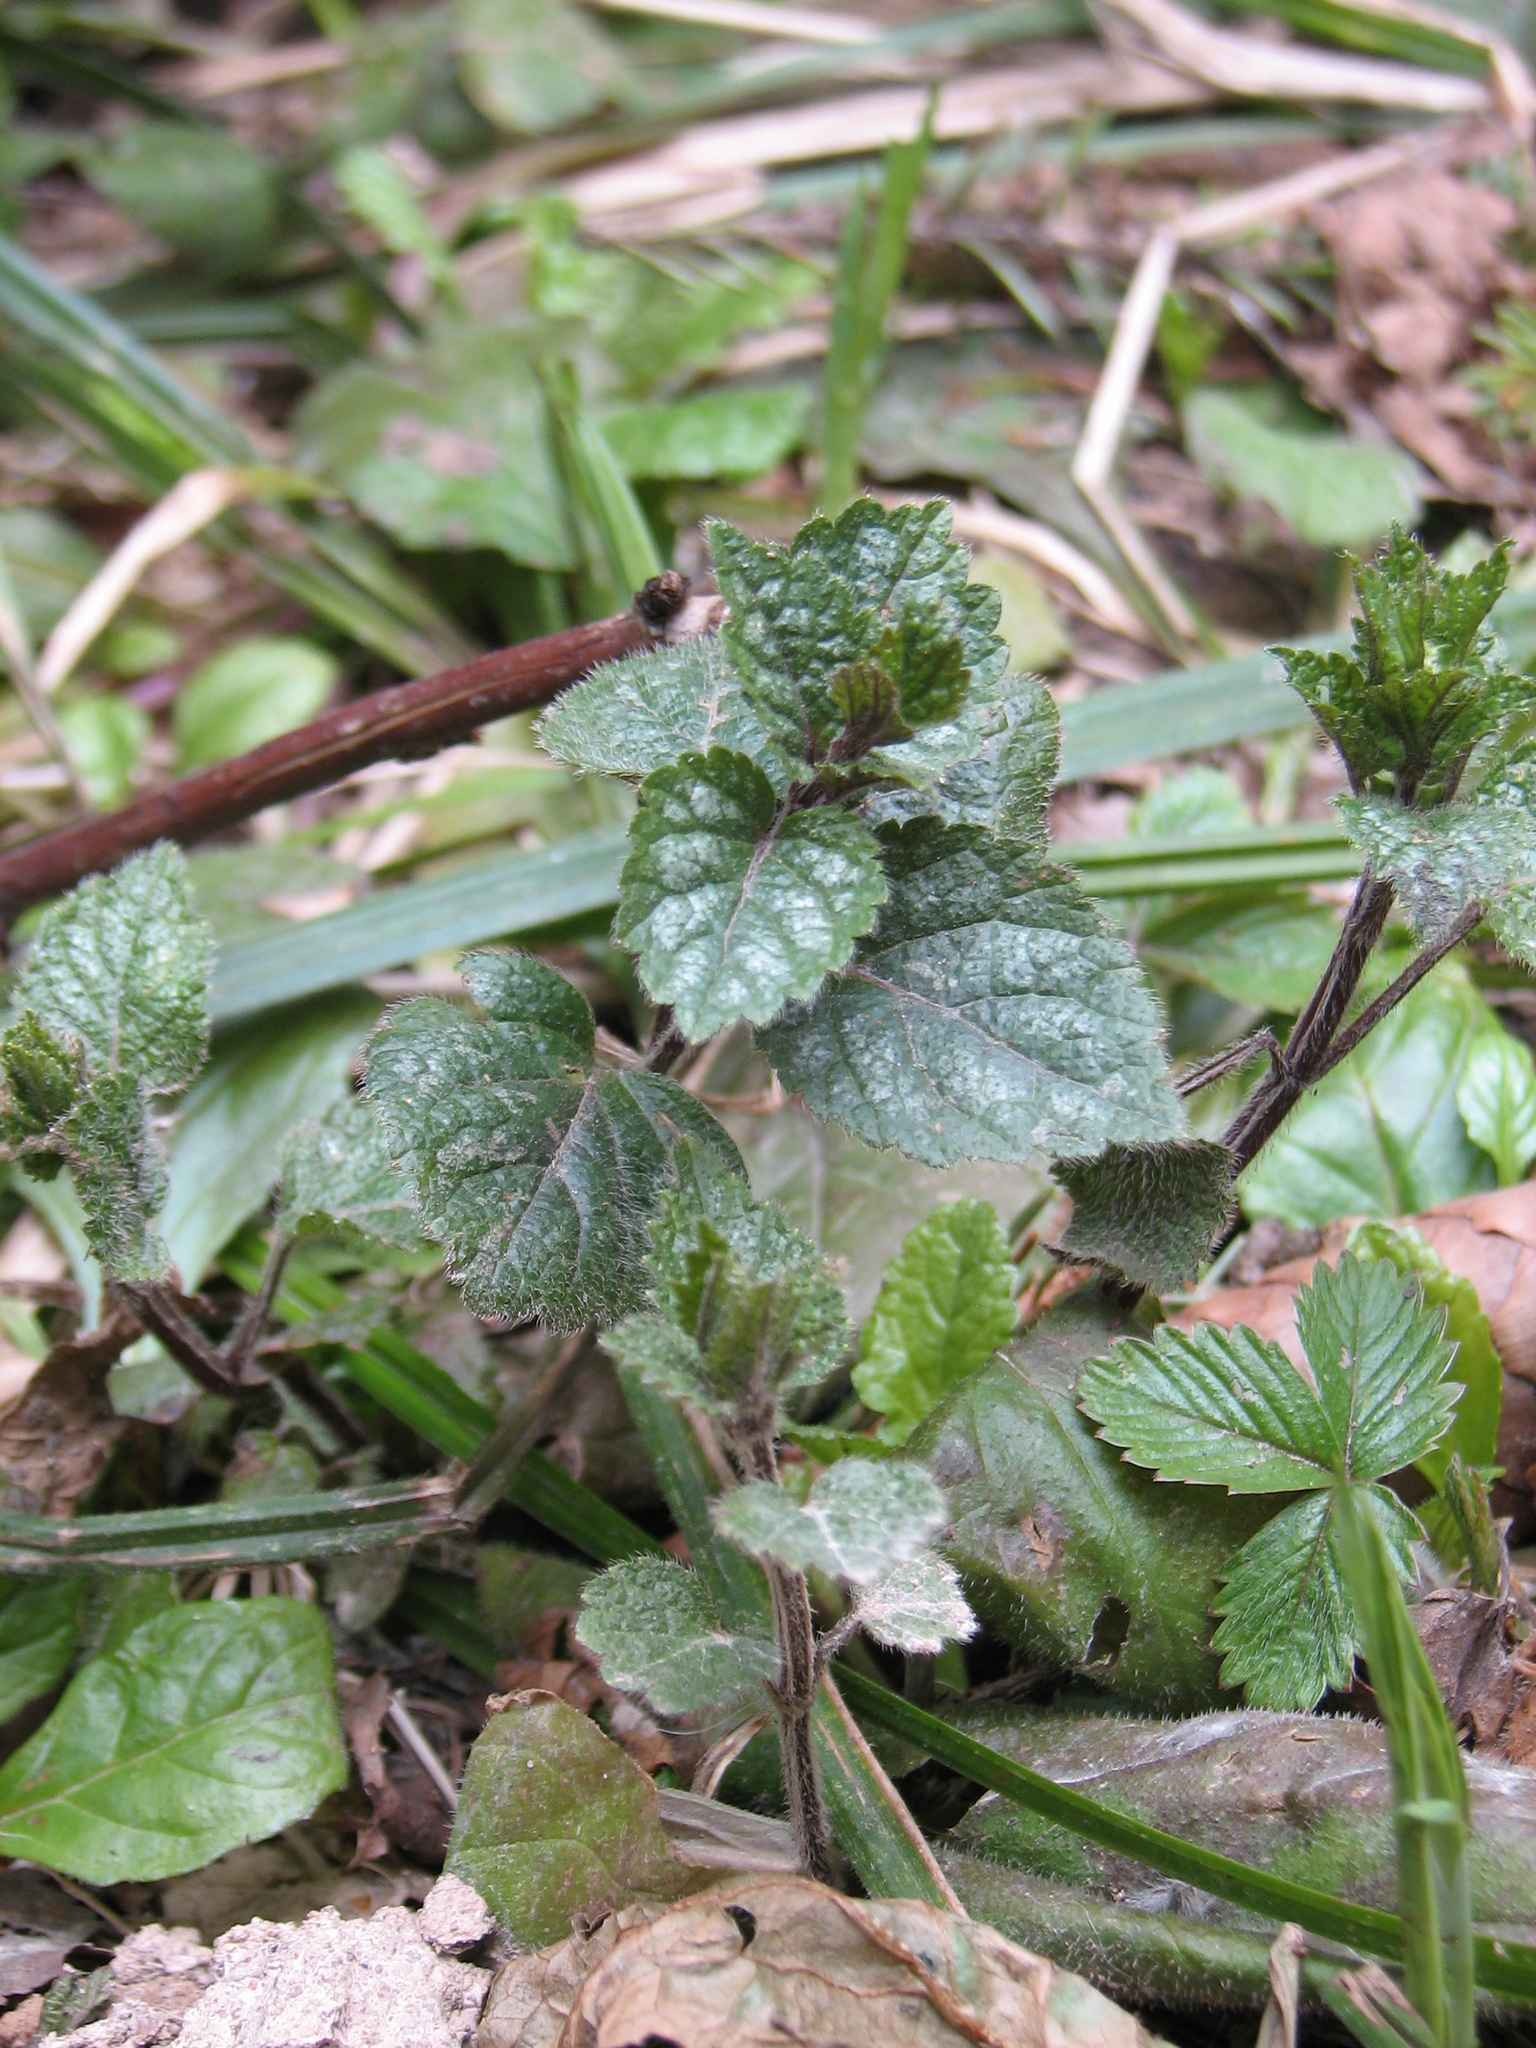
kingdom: Plantae
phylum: Tracheophyta
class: Magnoliopsida
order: Lamiales
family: Lamiaceae
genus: Lamium
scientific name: Lamium galeobdolon
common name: Yellow archangel
